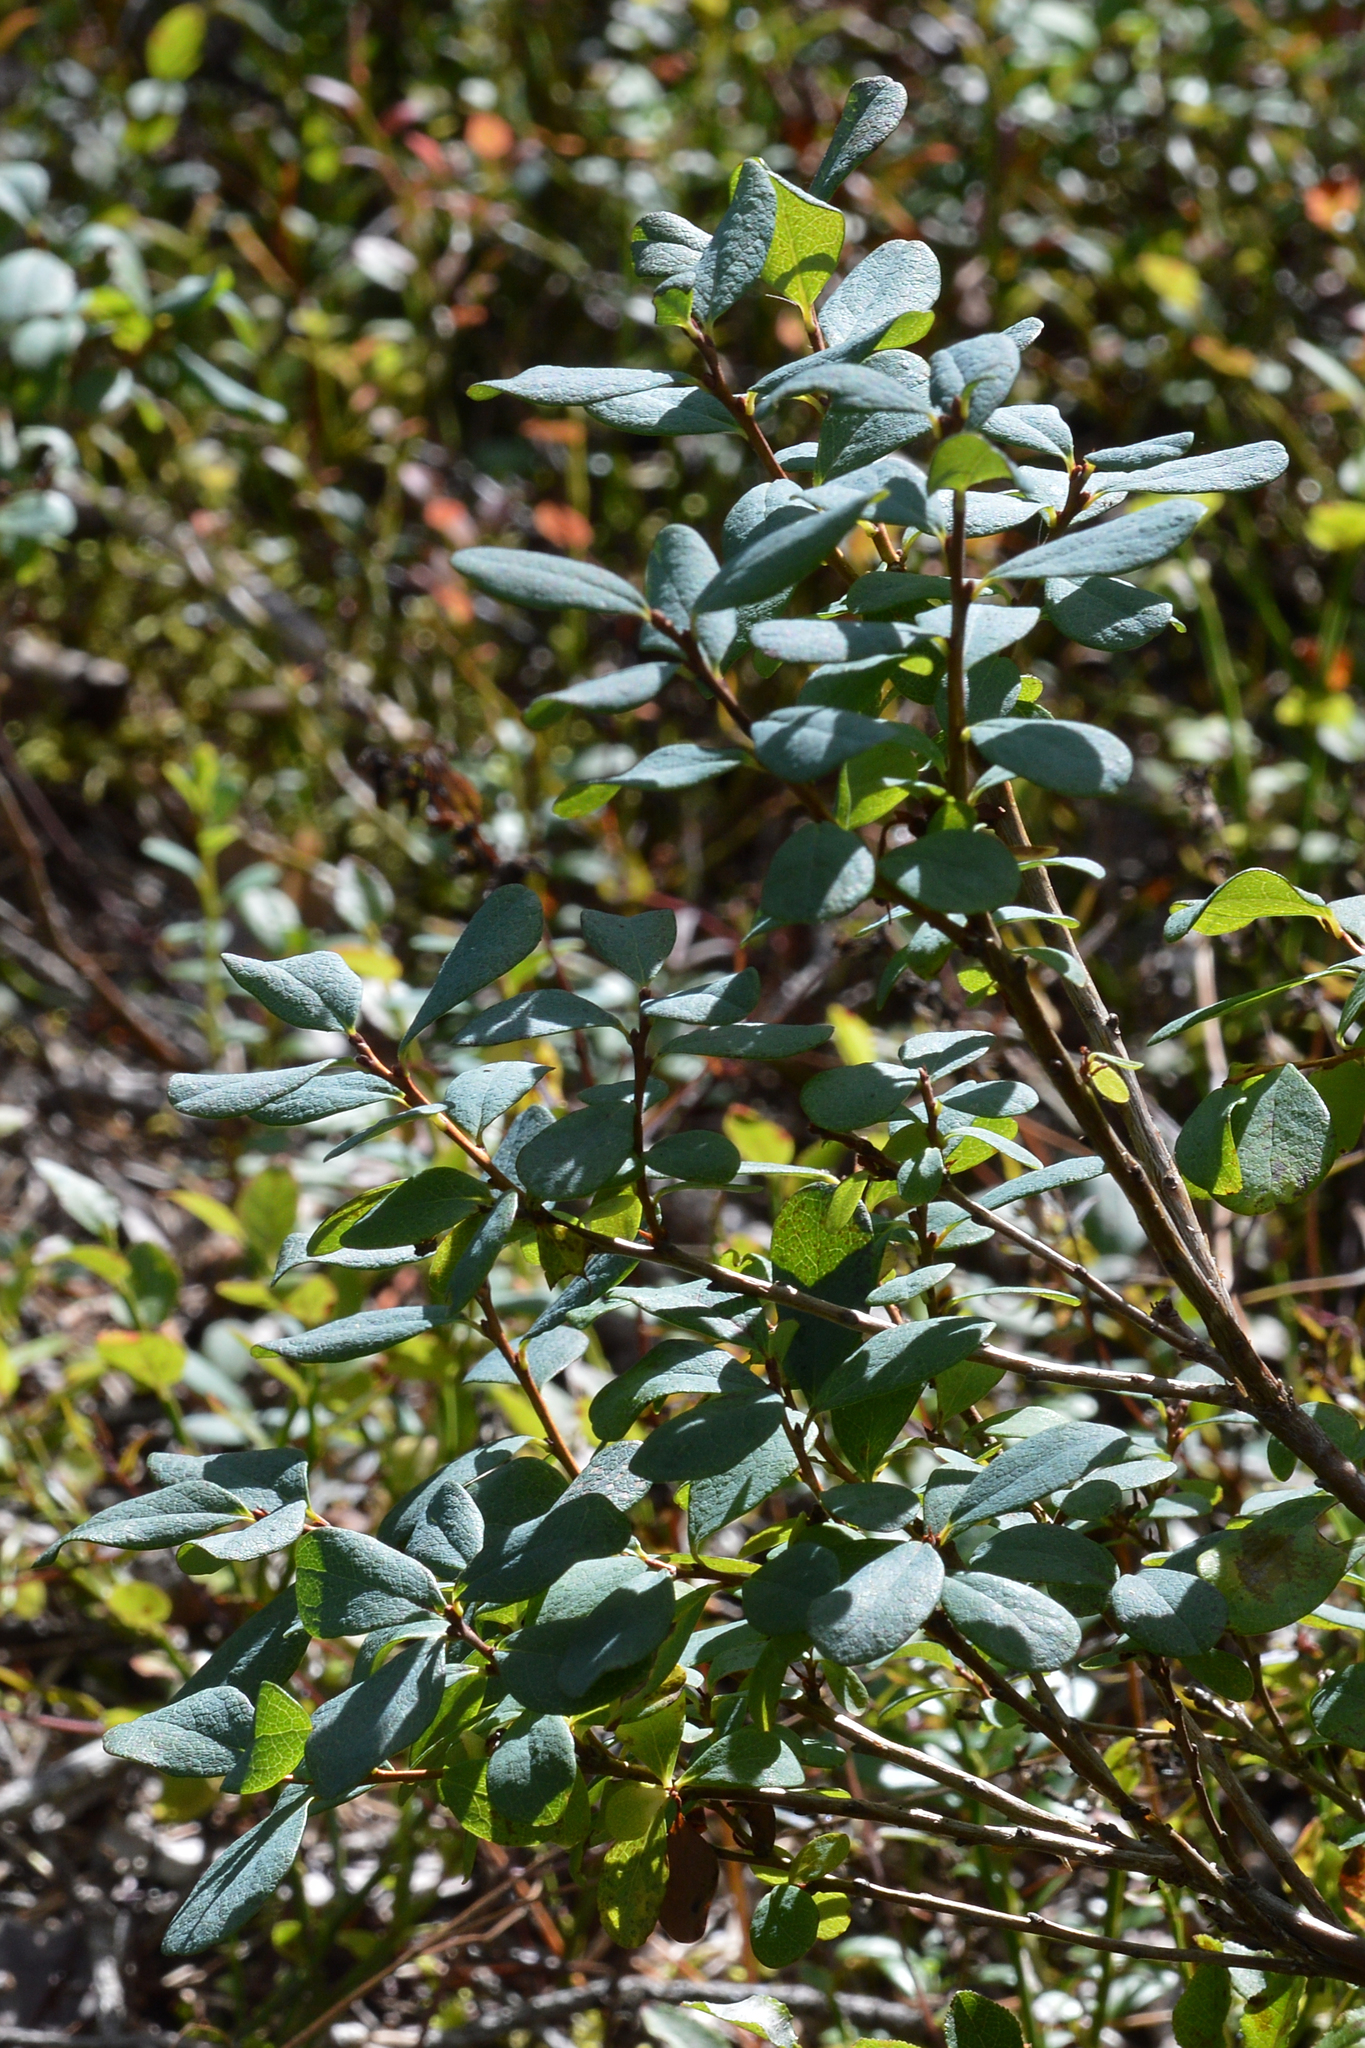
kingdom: Plantae
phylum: Tracheophyta
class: Magnoliopsida
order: Ericales
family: Ericaceae
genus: Vaccinium
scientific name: Vaccinium uliginosum
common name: Bog bilberry
